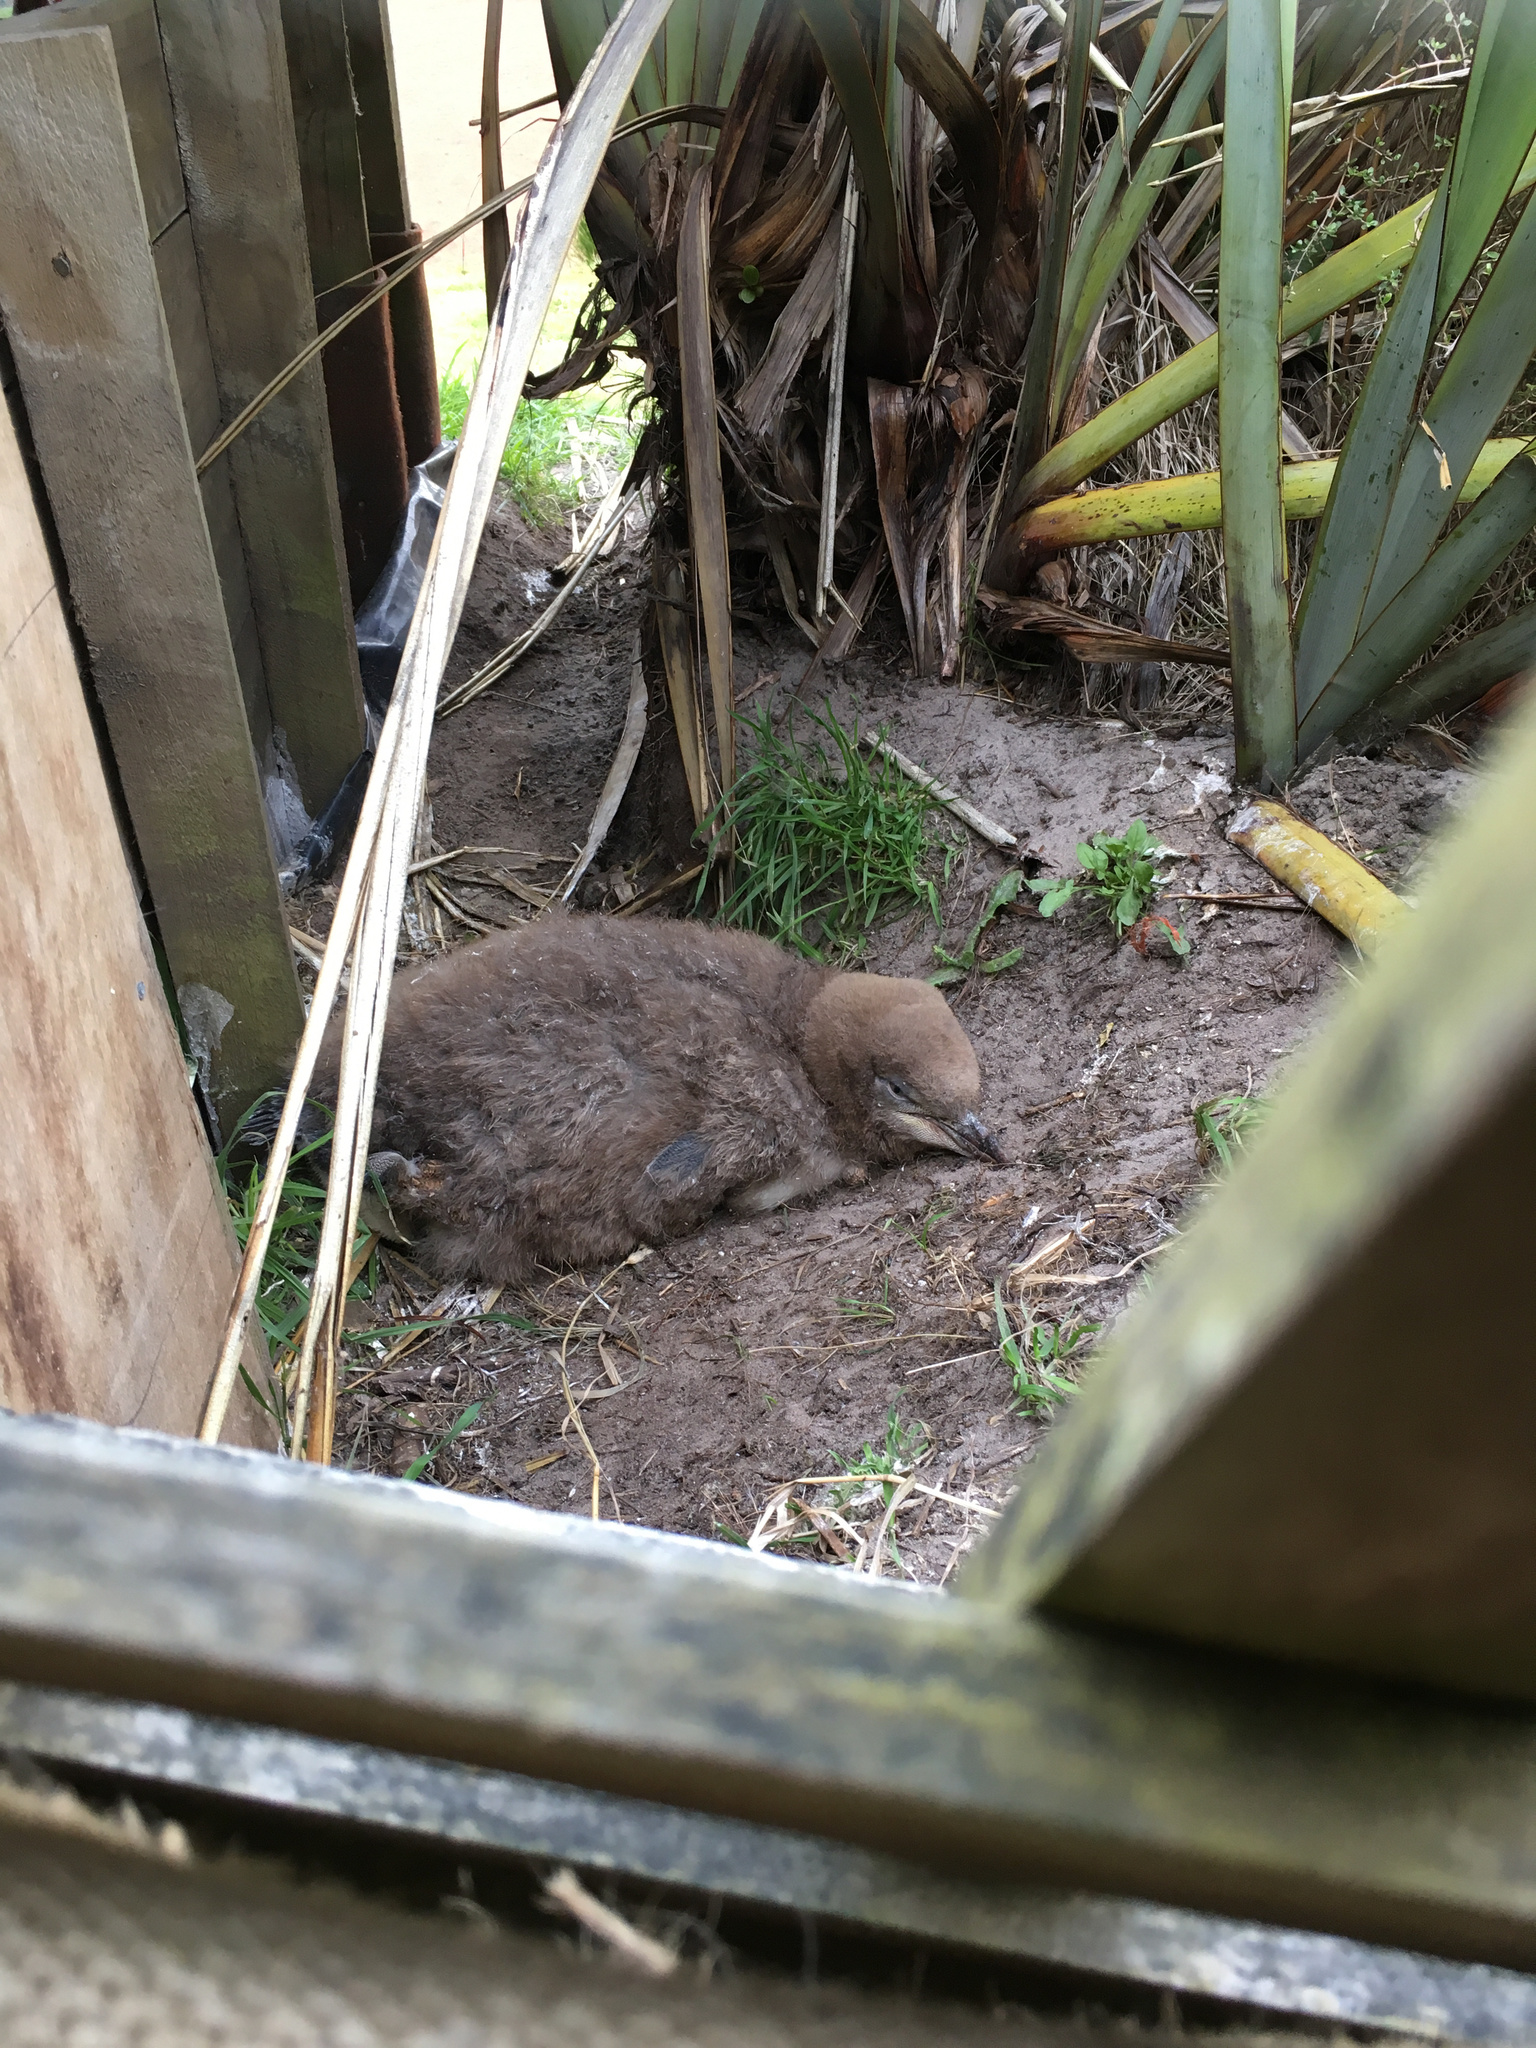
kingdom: Animalia
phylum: Chordata
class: Aves
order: Sphenisciformes
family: Spheniscidae
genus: Megadyptes
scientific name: Megadyptes antipodes
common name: Yellow-eyed penguin
